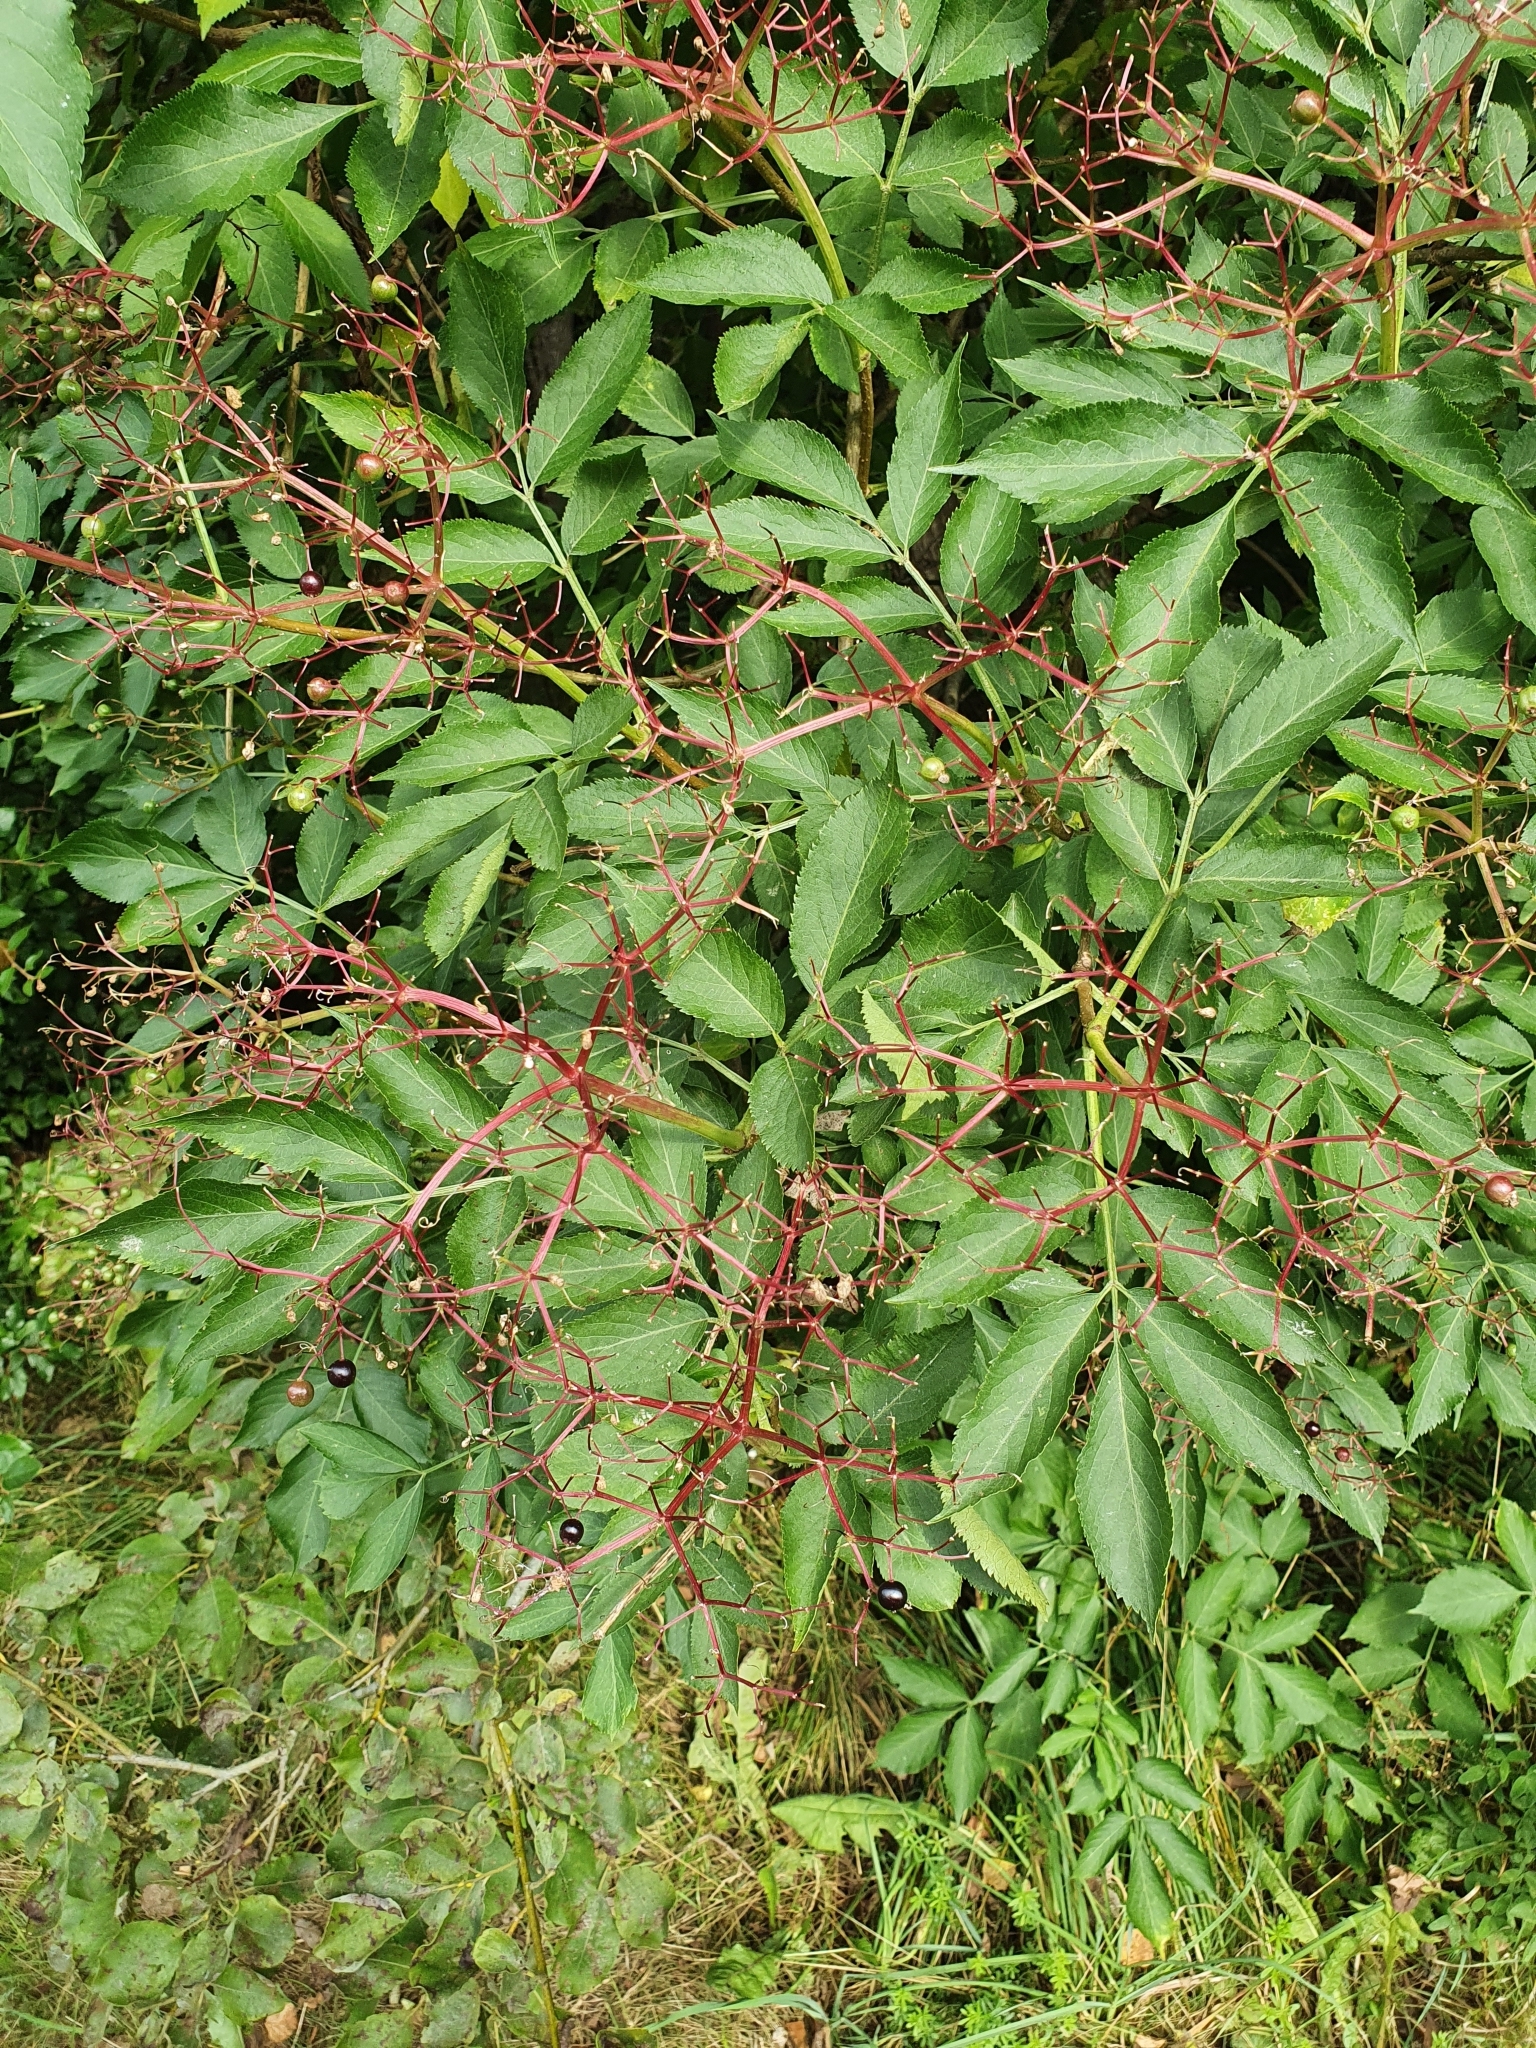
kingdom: Plantae
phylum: Tracheophyta
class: Magnoliopsida
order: Dipsacales
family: Viburnaceae
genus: Sambucus
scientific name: Sambucus nigra
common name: Elder
